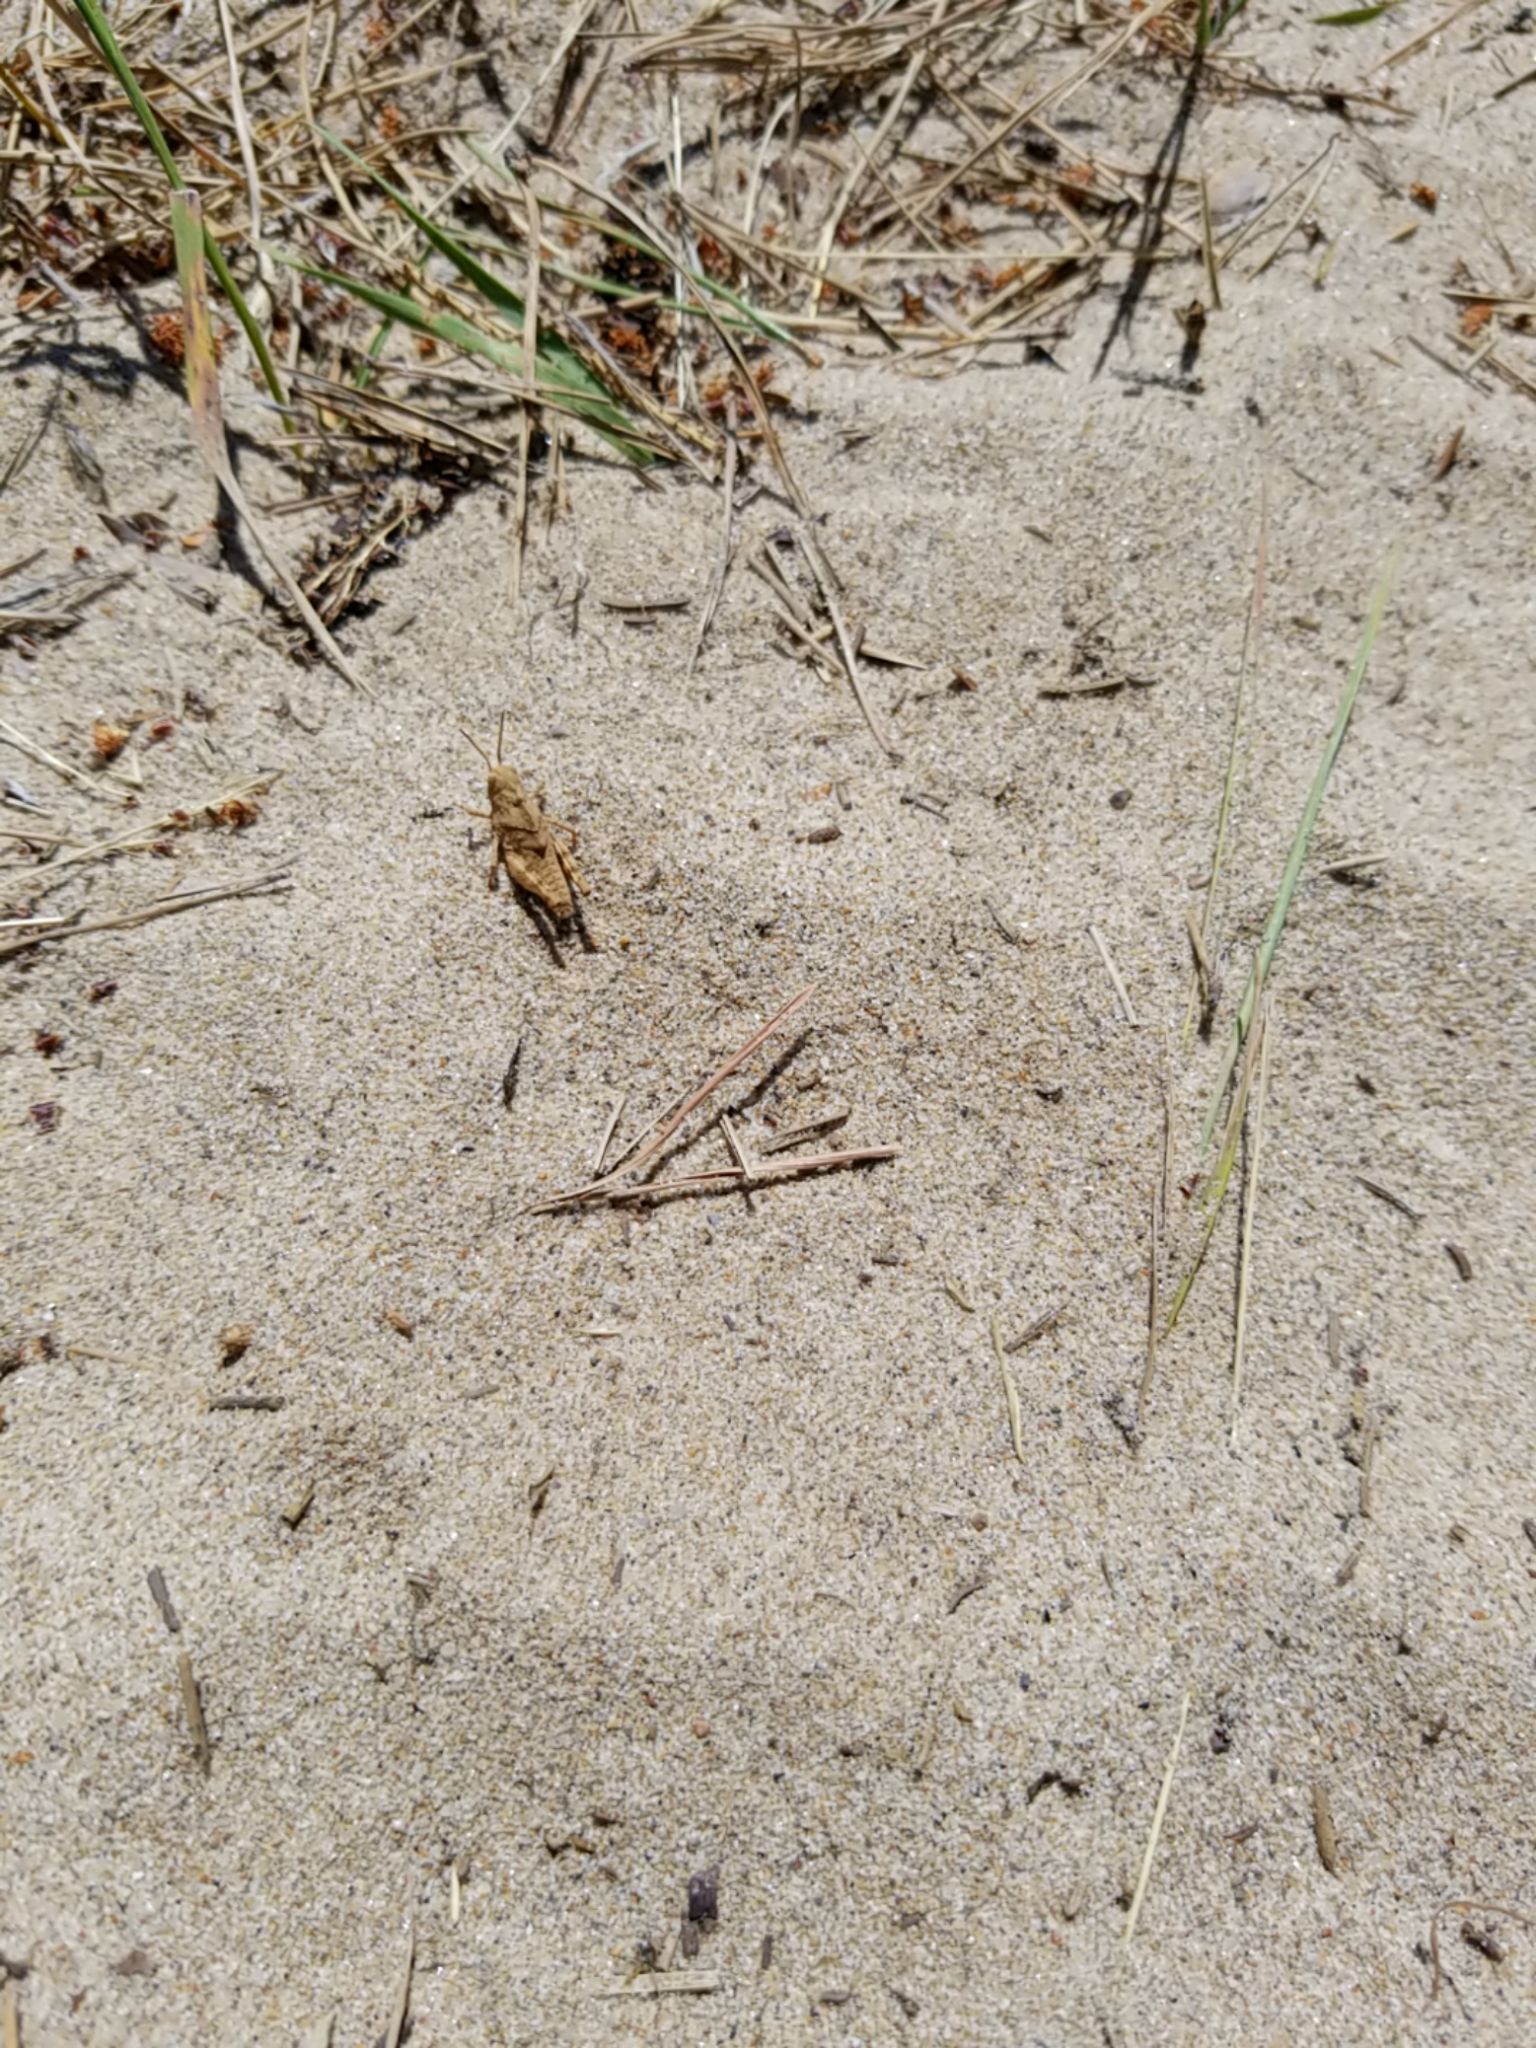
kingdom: Animalia
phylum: Arthropoda
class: Insecta
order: Orthoptera
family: Acrididae
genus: Dissosteira
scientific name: Dissosteira carolina
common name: Carolina grasshopper
